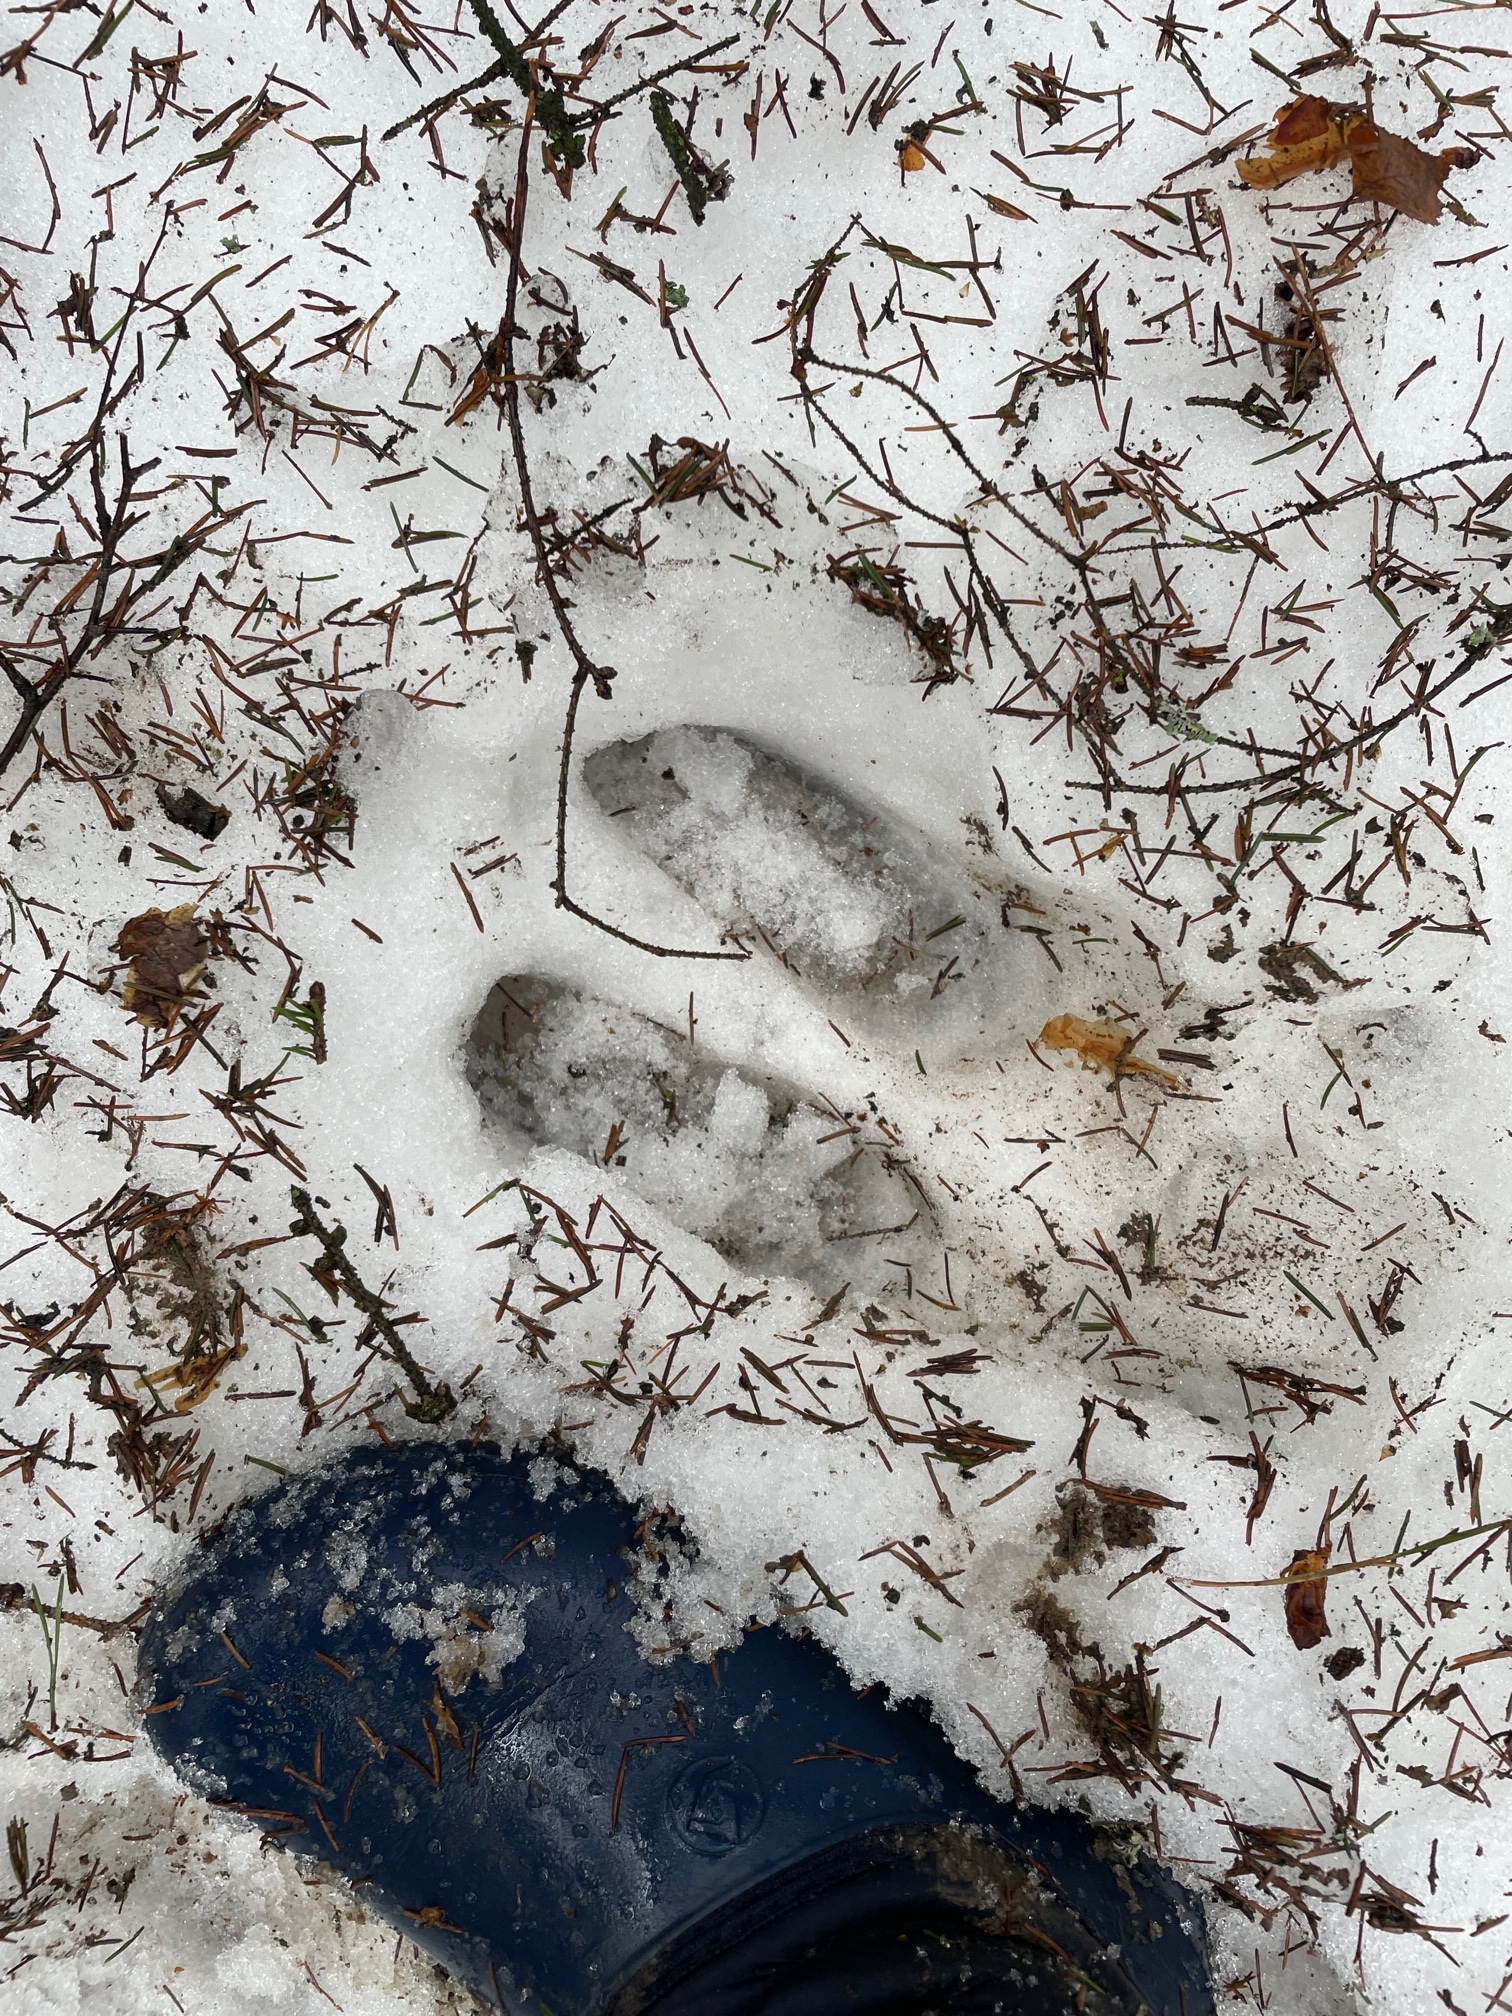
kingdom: Animalia
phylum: Chordata
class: Mammalia
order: Artiodactyla
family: Cervidae
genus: Alces
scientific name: Alces alces
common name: Moose
